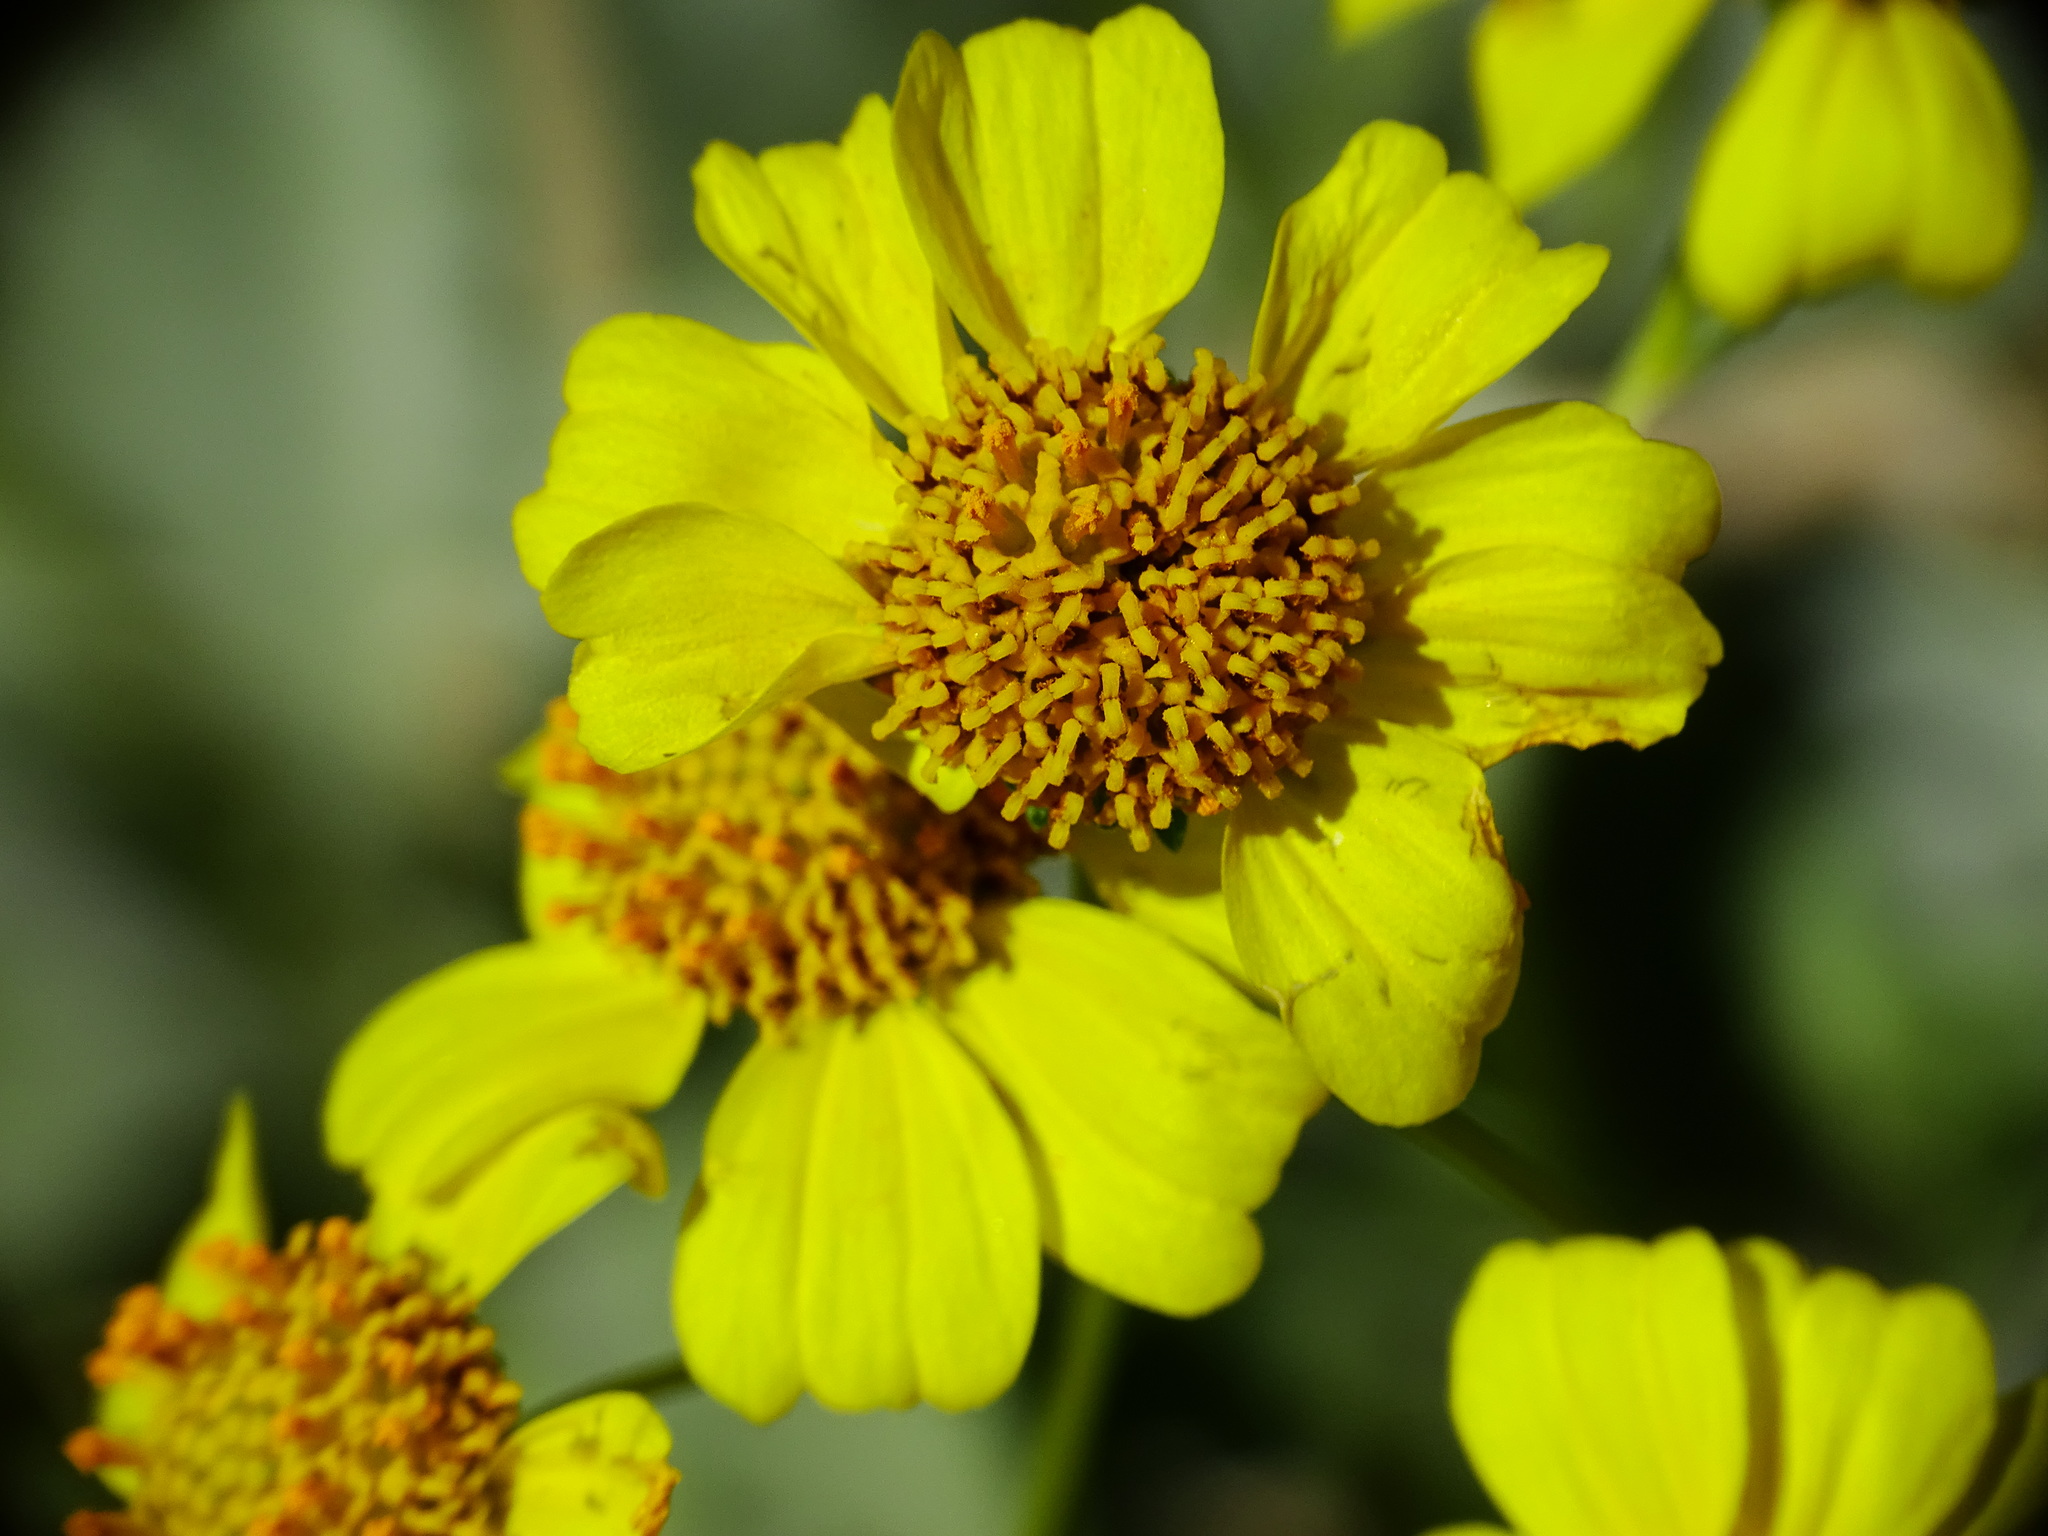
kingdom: Plantae
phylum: Tracheophyta
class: Magnoliopsida
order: Asterales
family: Asteraceae
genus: Encelia
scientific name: Encelia farinosa
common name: Brittlebush
